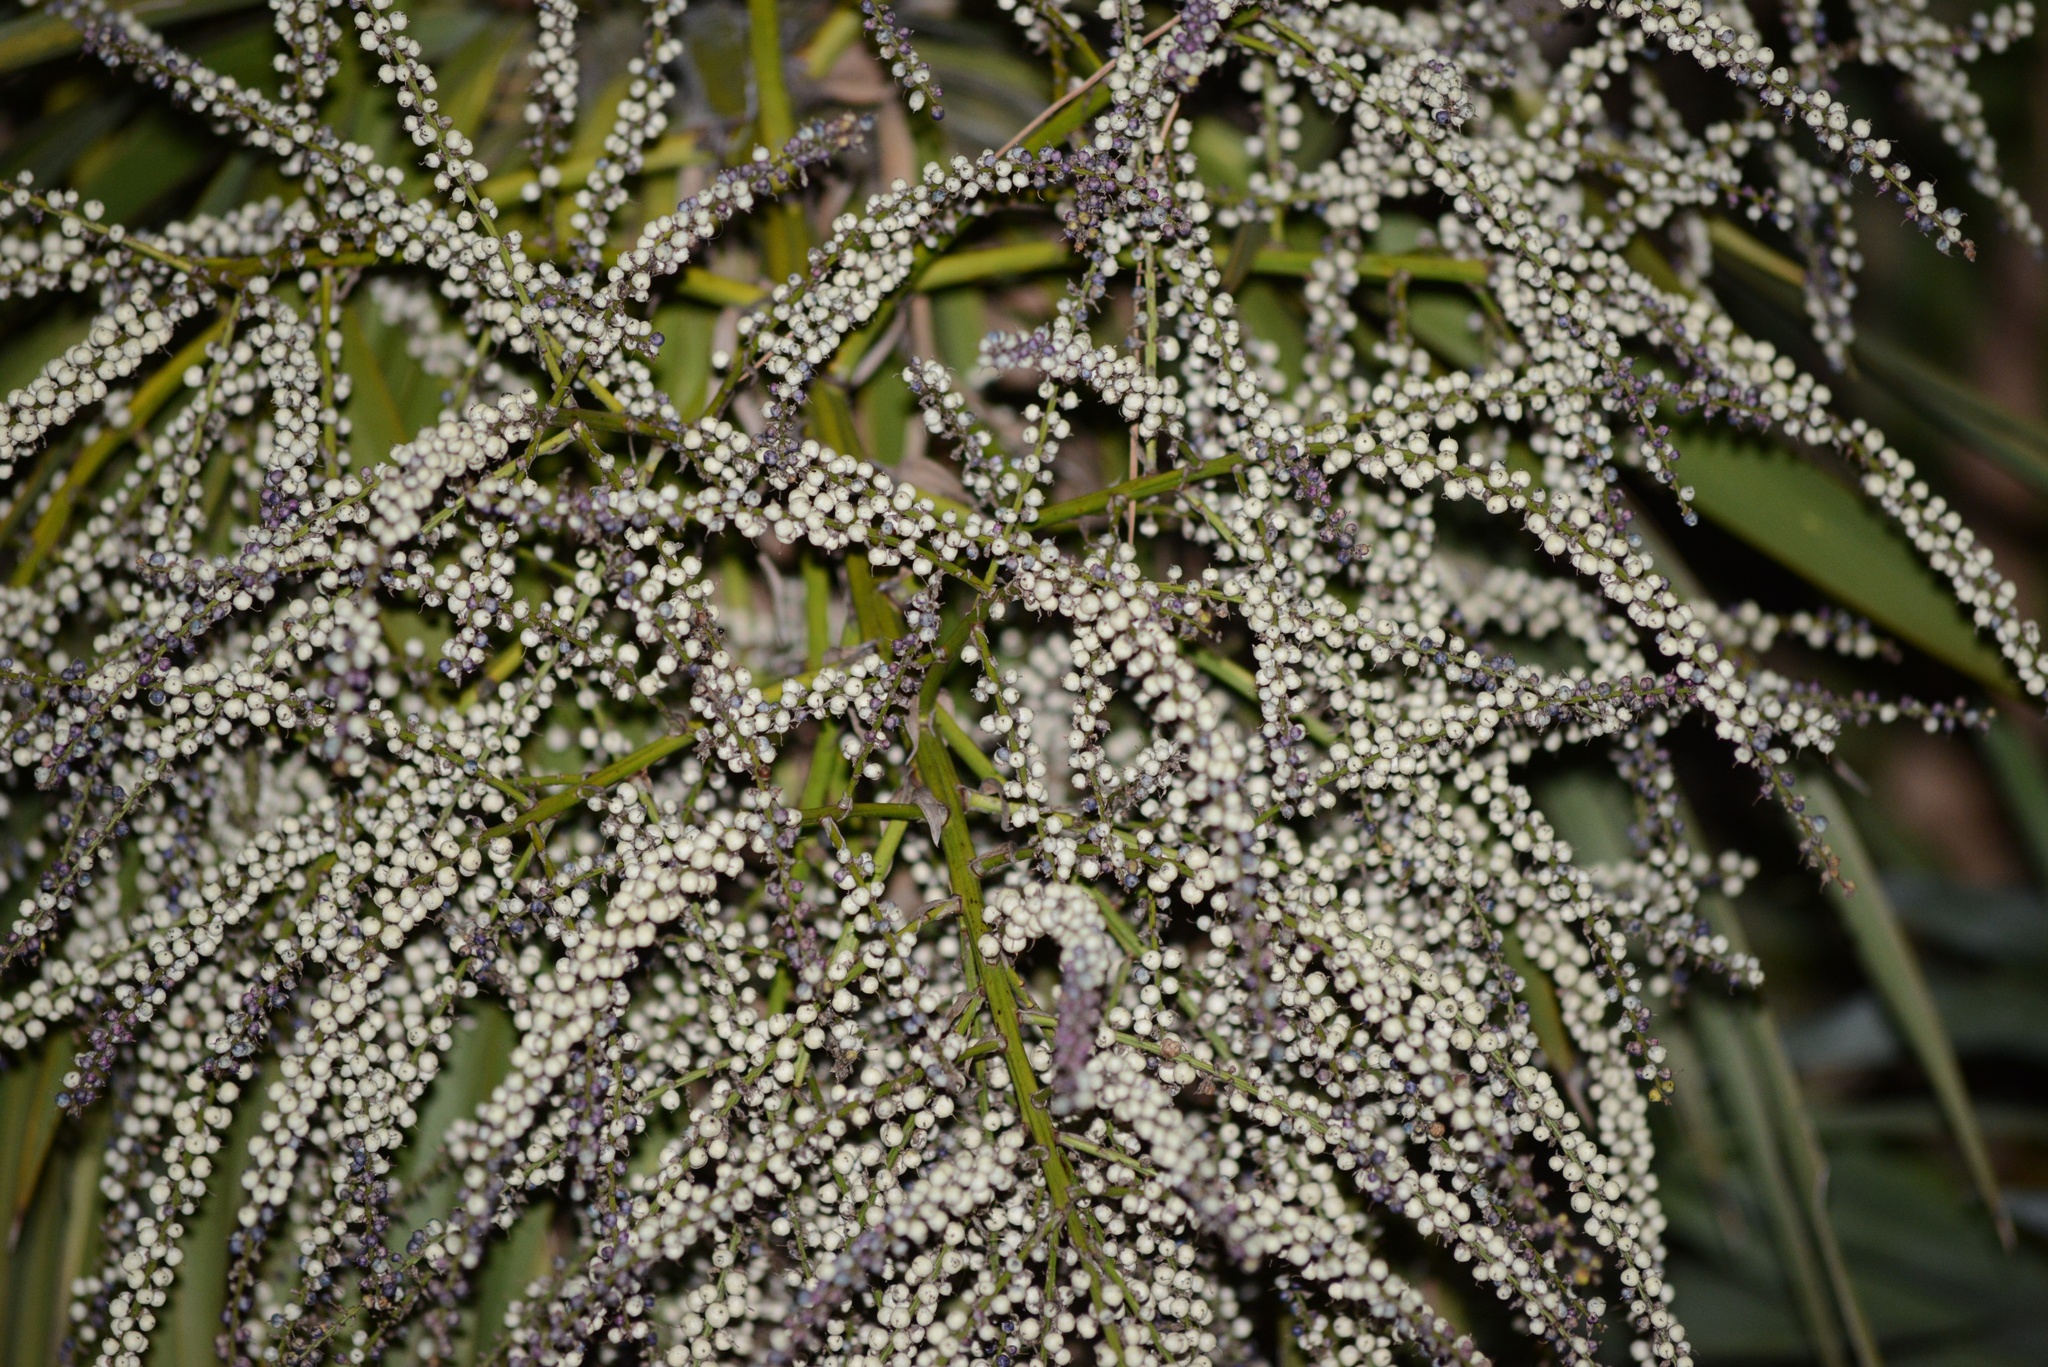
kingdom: Plantae
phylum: Tracheophyta
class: Liliopsida
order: Asparagales
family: Asparagaceae
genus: Cordyline
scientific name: Cordyline australis
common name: Cabbage-palm
